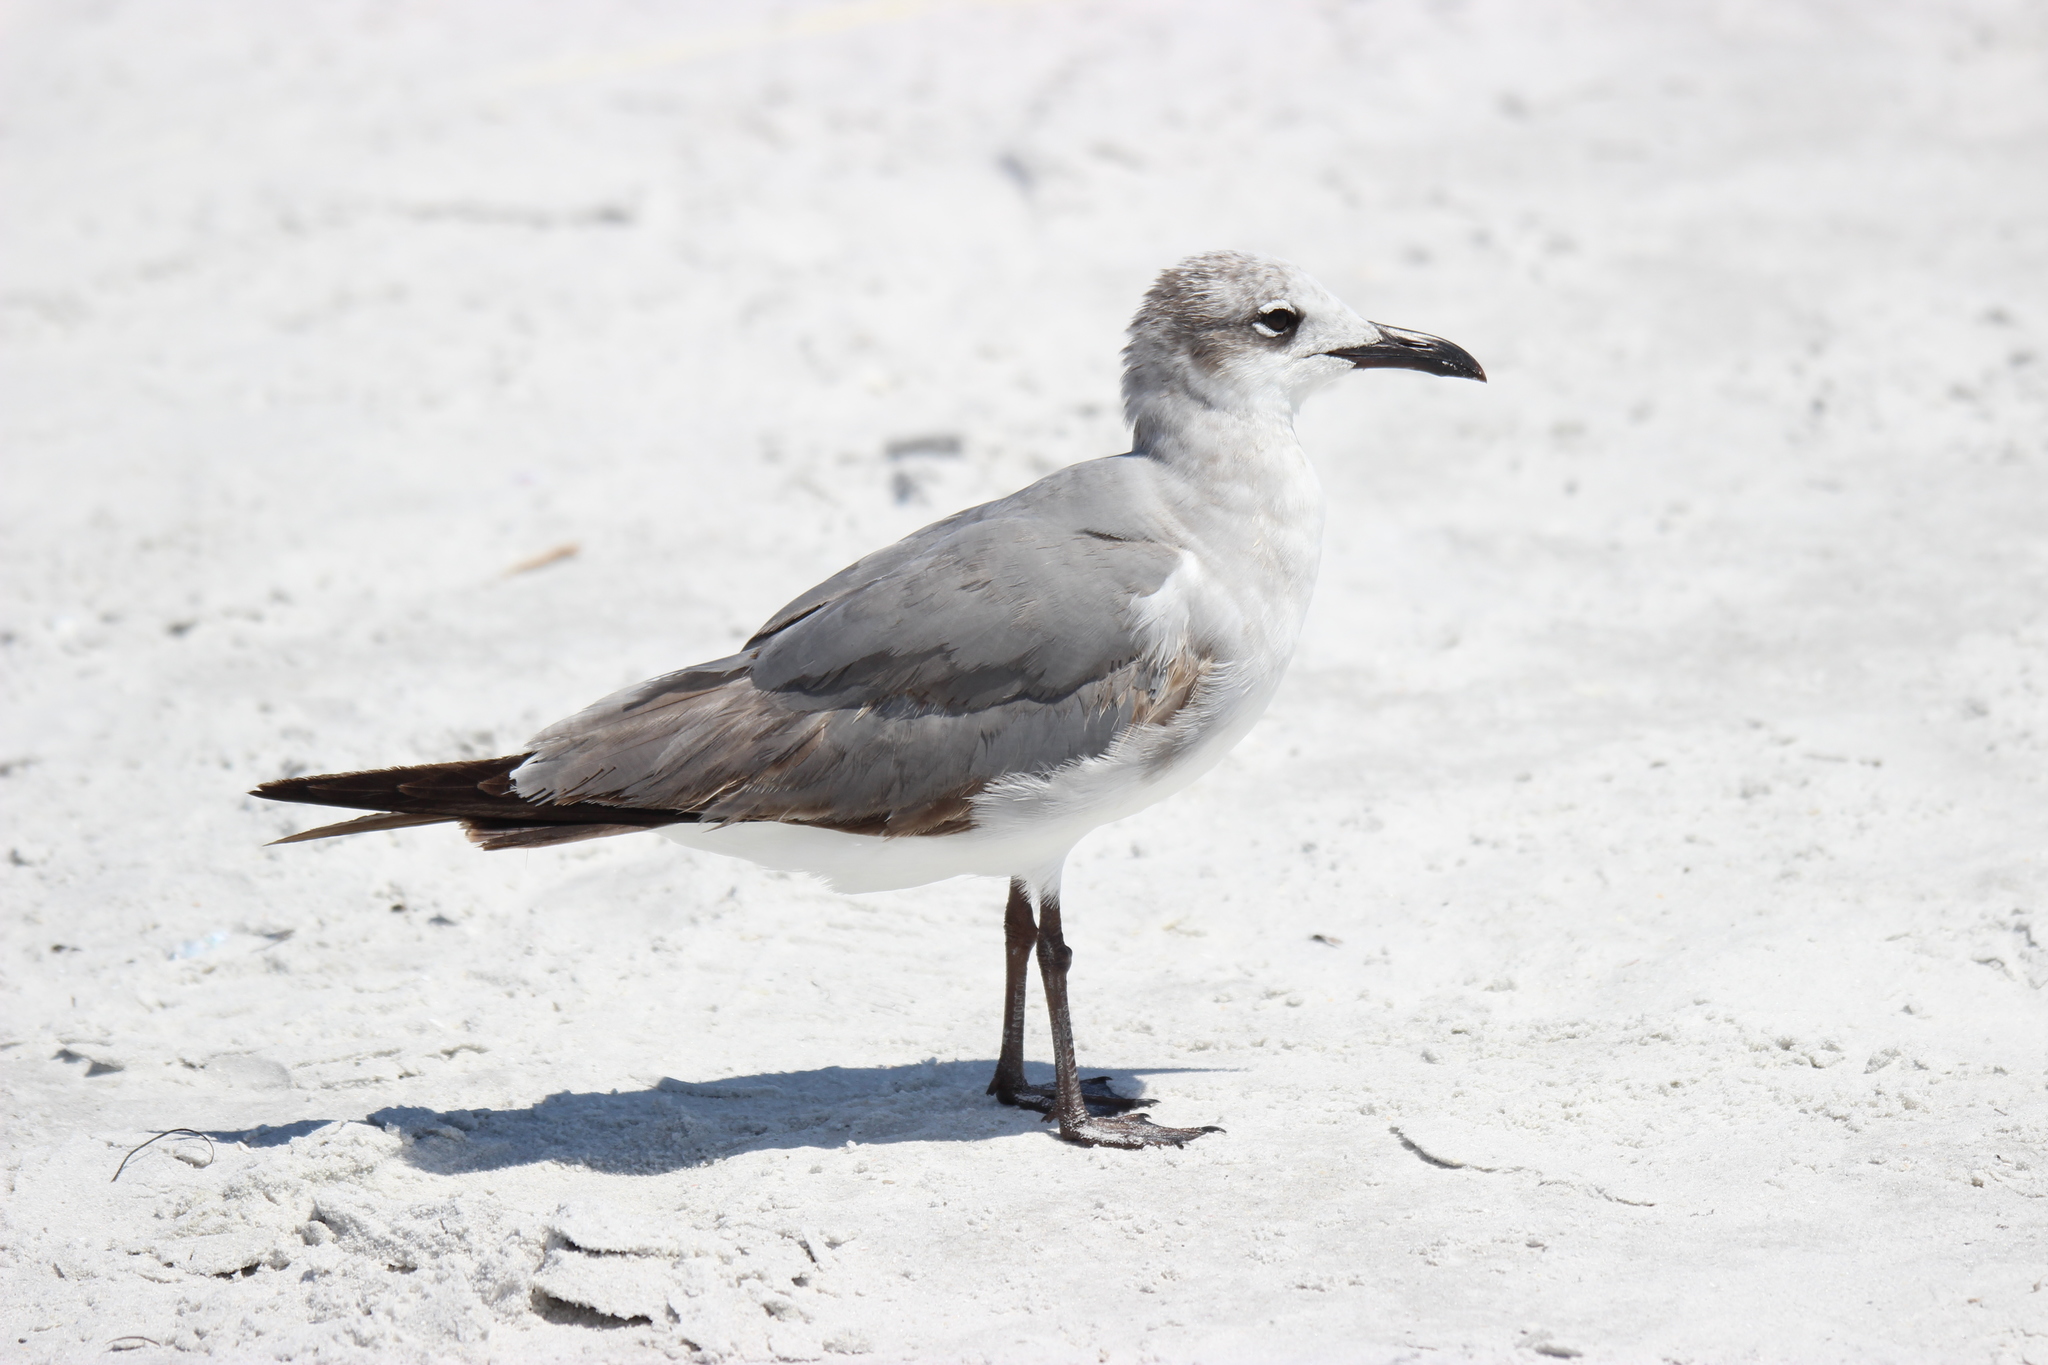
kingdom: Animalia
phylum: Chordata
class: Aves
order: Charadriiformes
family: Laridae
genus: Leucophaeus
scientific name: Leucophaeus atricilla
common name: Laughing gull
